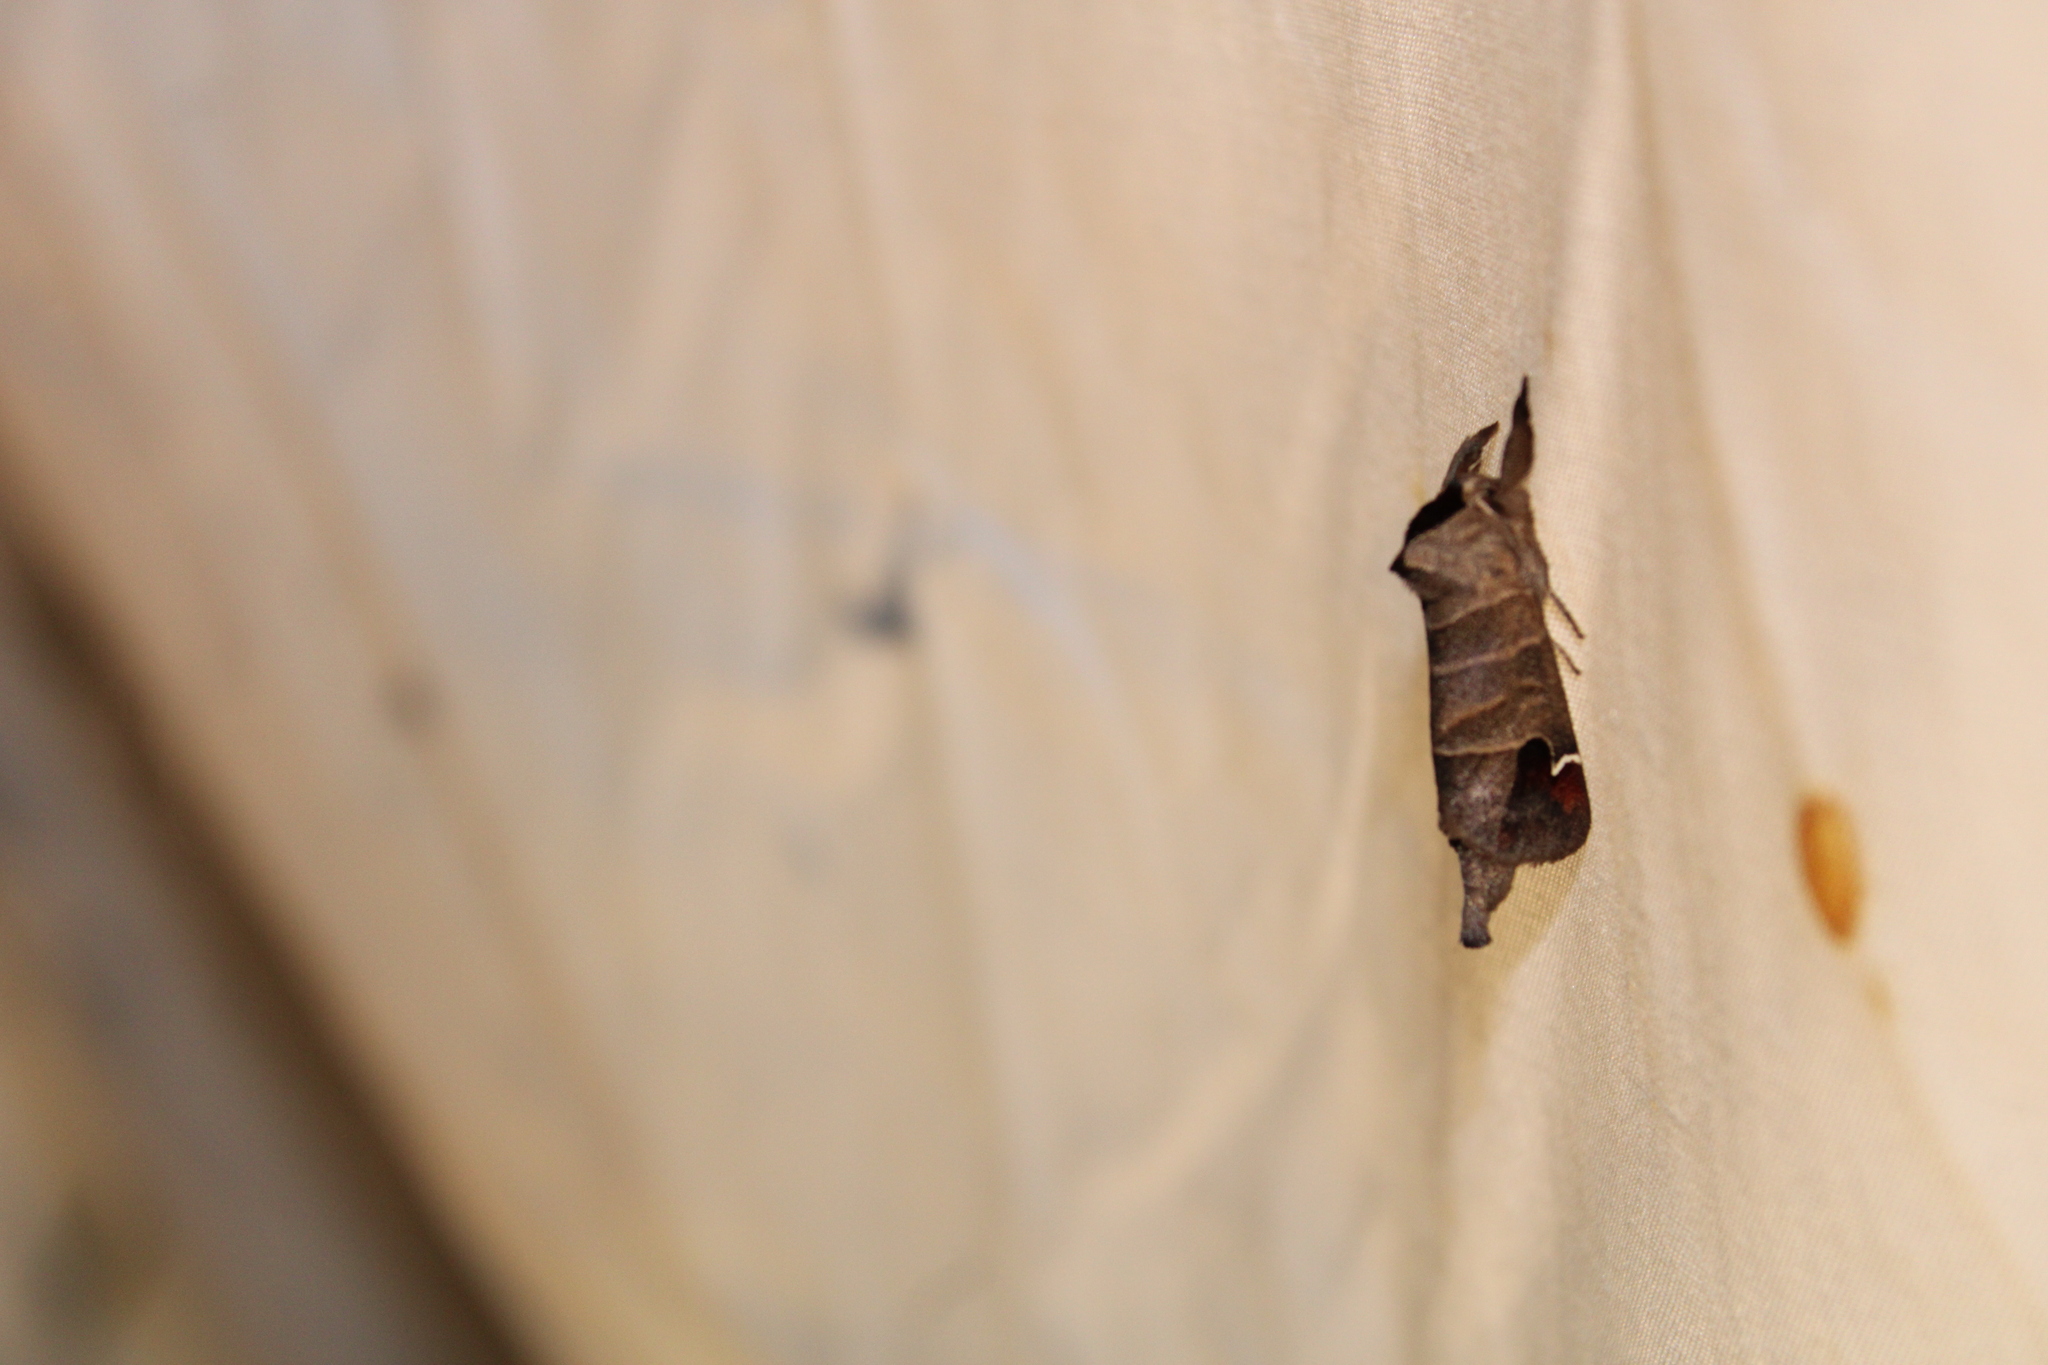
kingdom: Animalia
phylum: Arthropoda
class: Insecta
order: Lepidoptera
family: Notodontidae
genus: Clostera
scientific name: Clostera albosigma
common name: Sigmoid prominent
